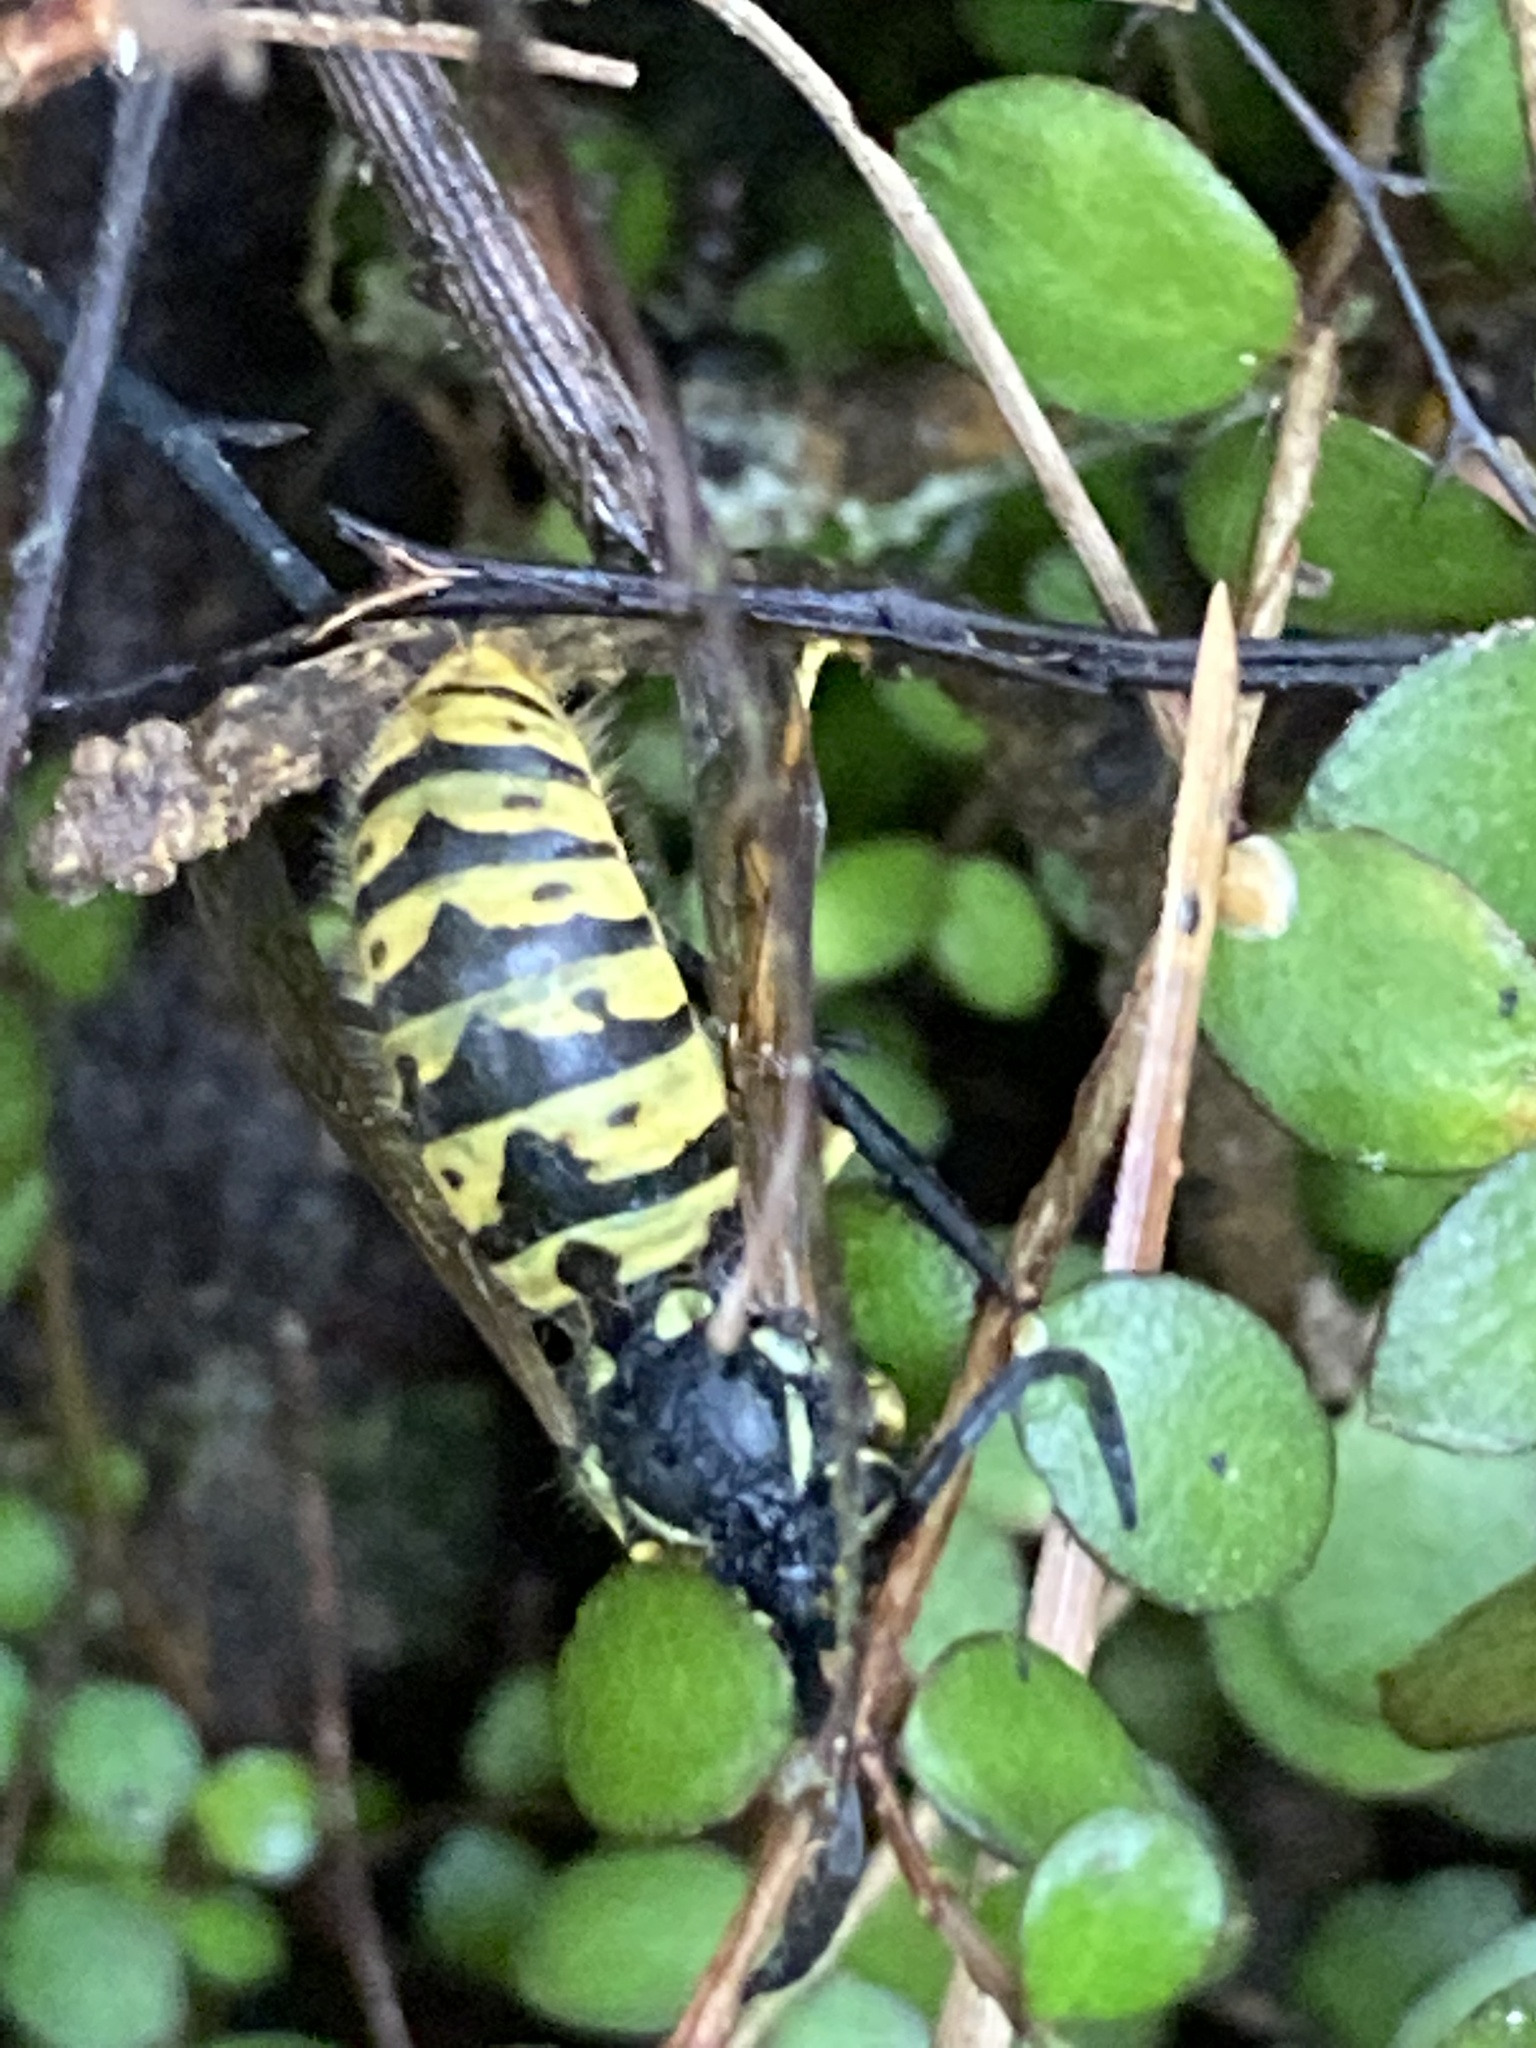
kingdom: Animalia
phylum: Arthropoda
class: Insecta
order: Hymenoptera
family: Vespidae
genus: Vespula
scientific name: Vespula germanica
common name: German wasp
